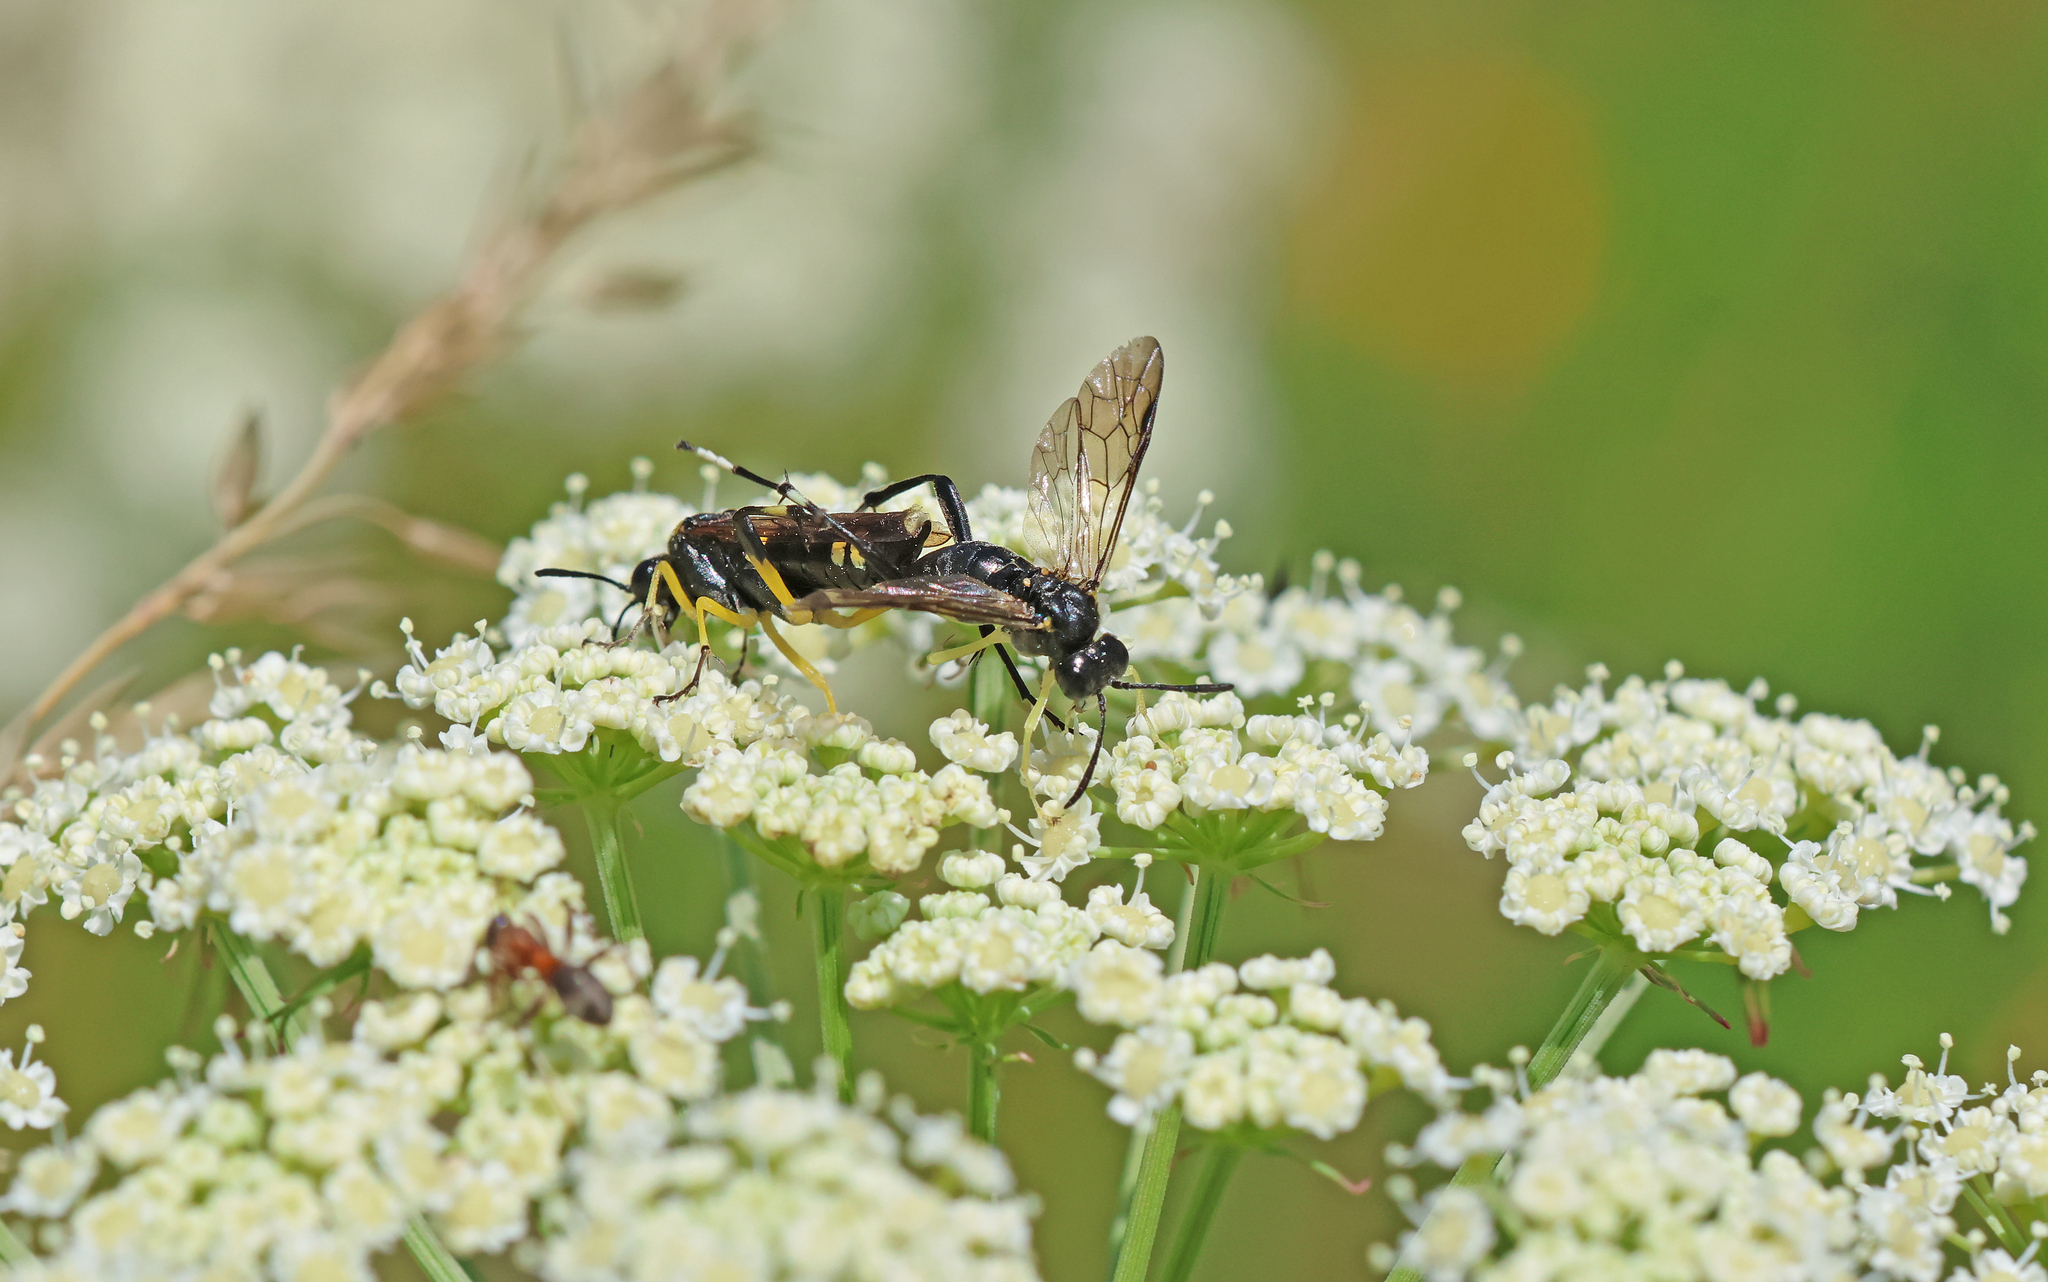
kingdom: Animalia
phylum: Arthropoda
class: Insecta
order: Hymenoptera
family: Tenthredinidae
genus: Macrophya
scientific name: Macrophya montana
